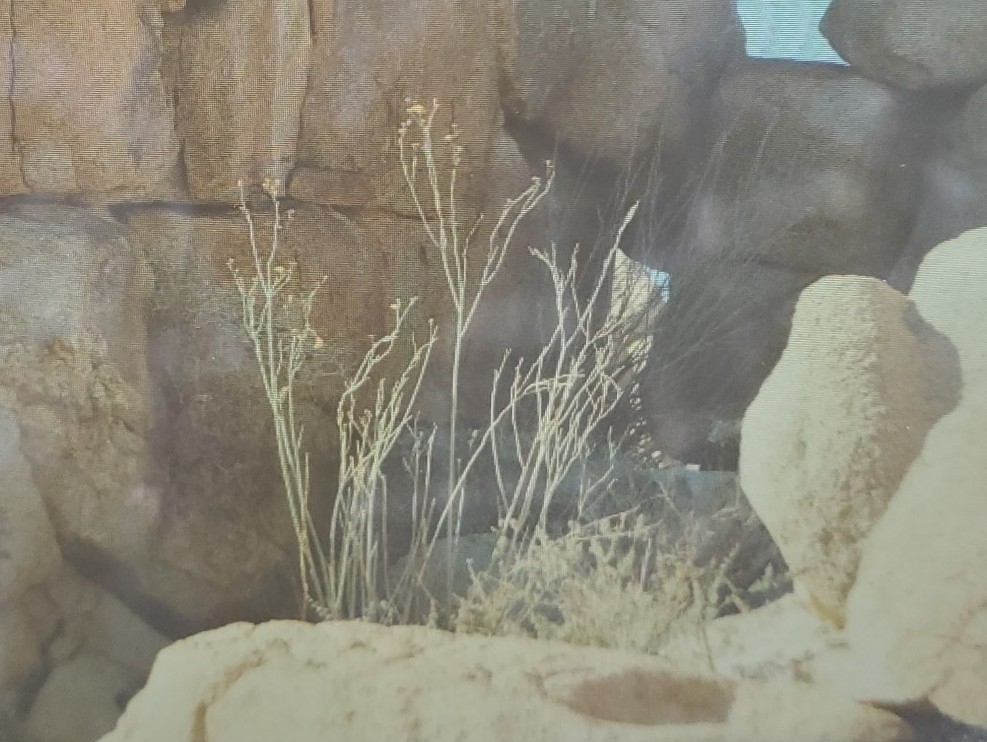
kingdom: Plantae
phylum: Tracheophyta
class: Magnoliopsida
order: Gentianales
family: Apocynaceae
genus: Asclepias
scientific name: Asclepias albicans
